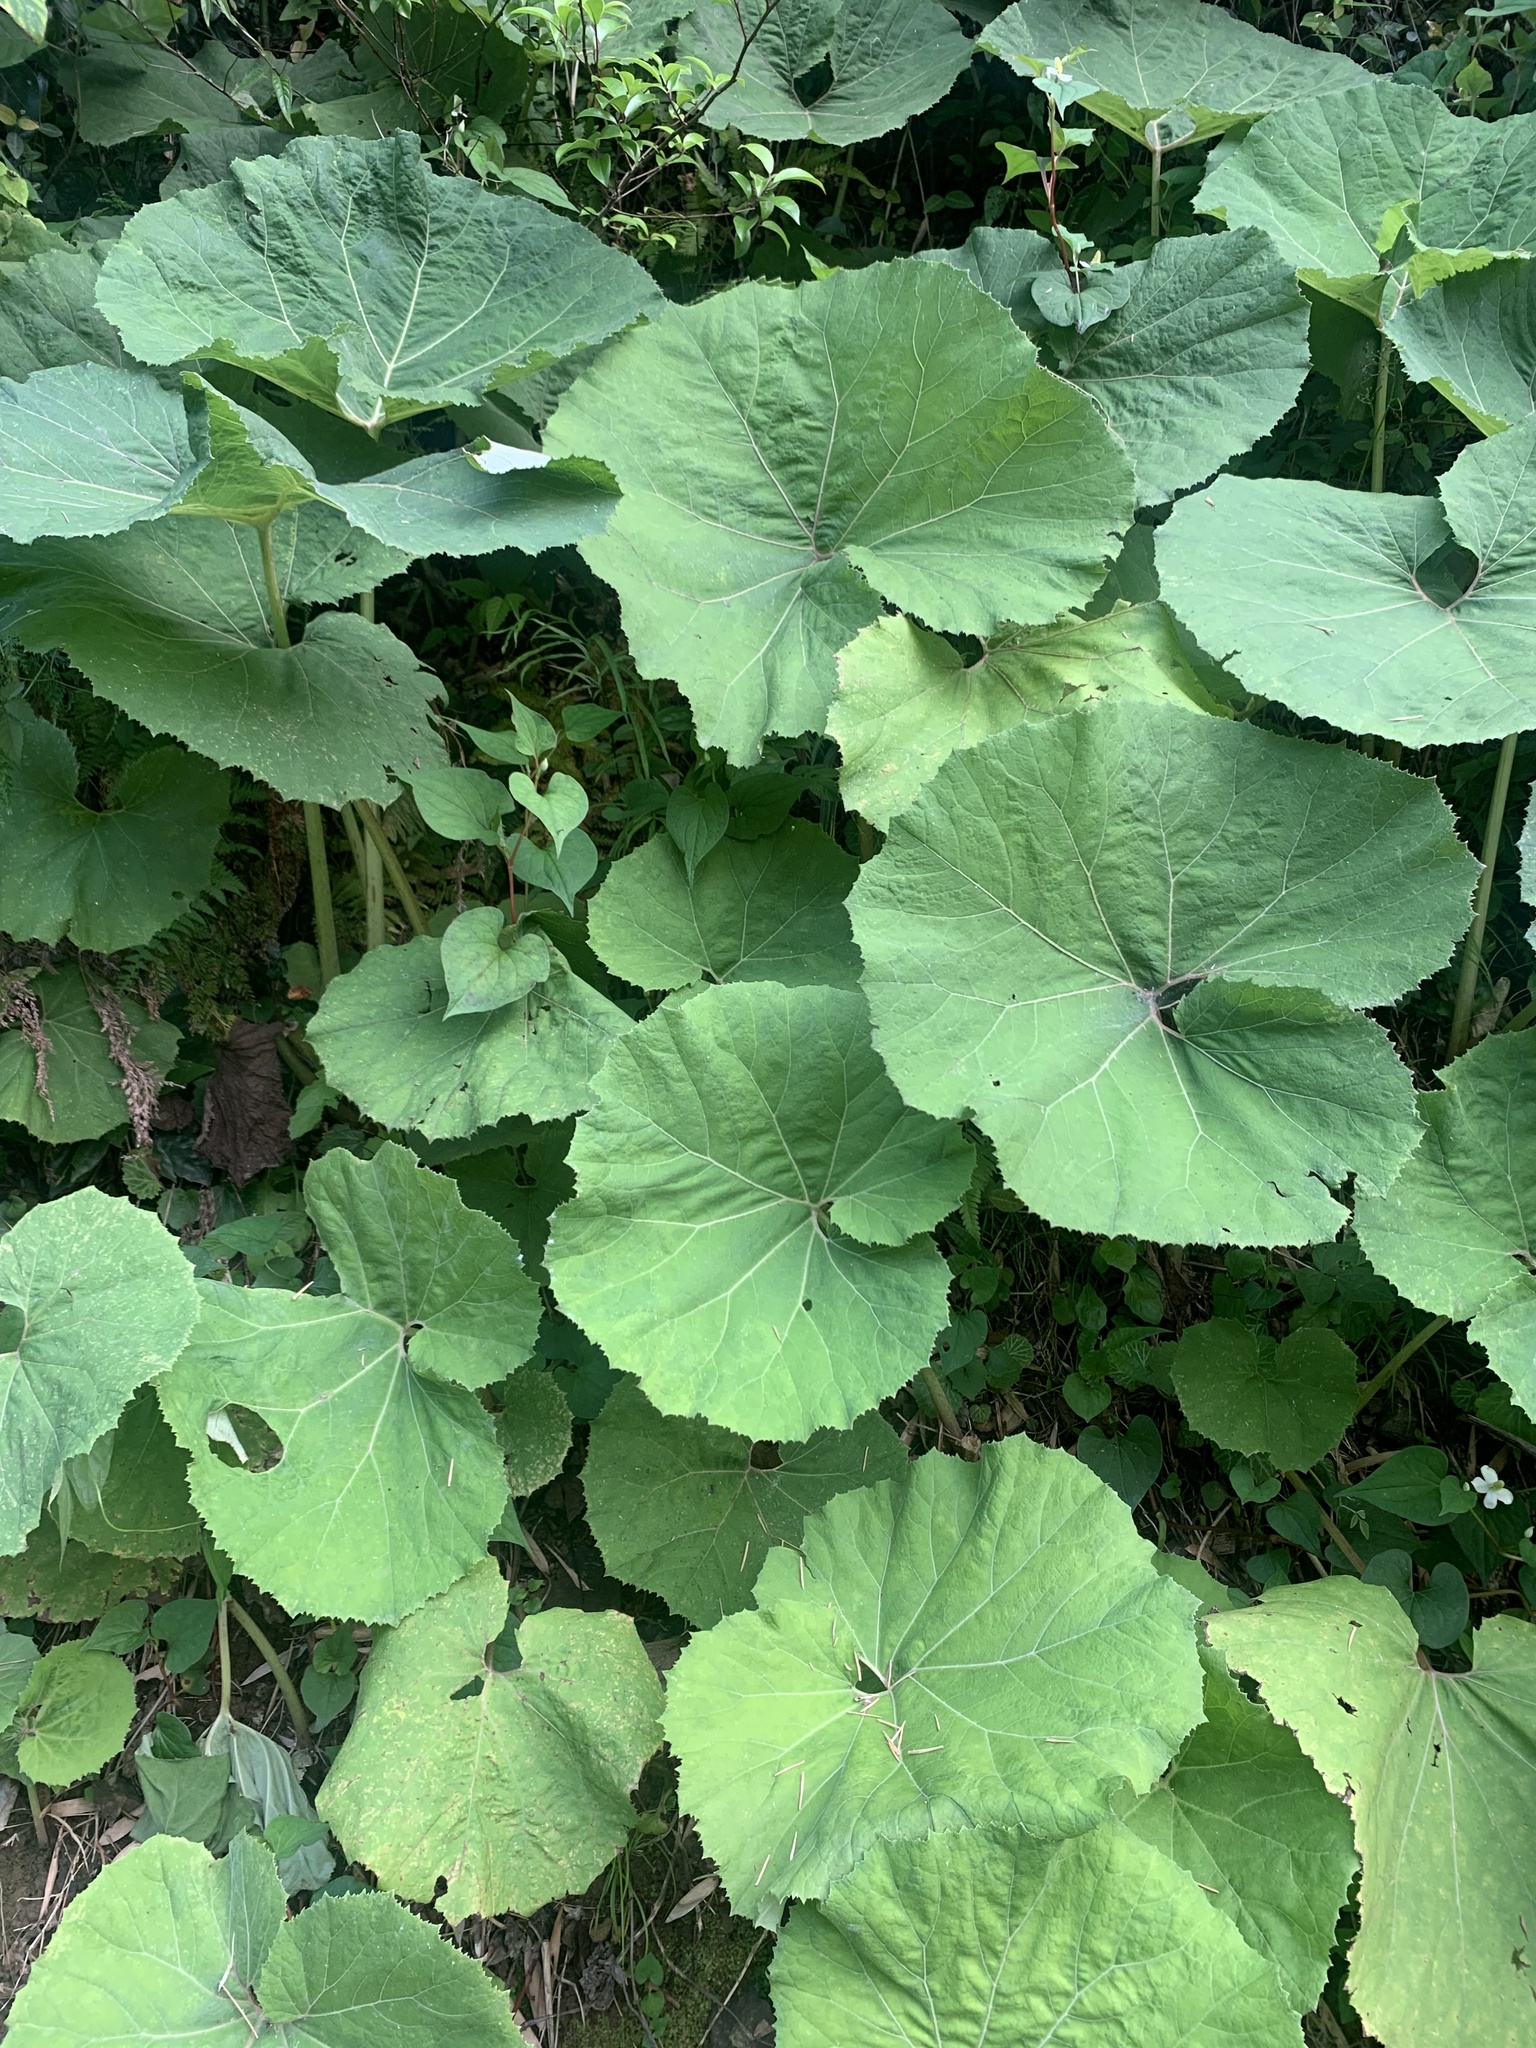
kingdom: Plantae
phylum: Tracheophyta
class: Magnoliopsida
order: Asterales
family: Asteraceae
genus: Petasites
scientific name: Petasites japonicus
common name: Giant butterbur
